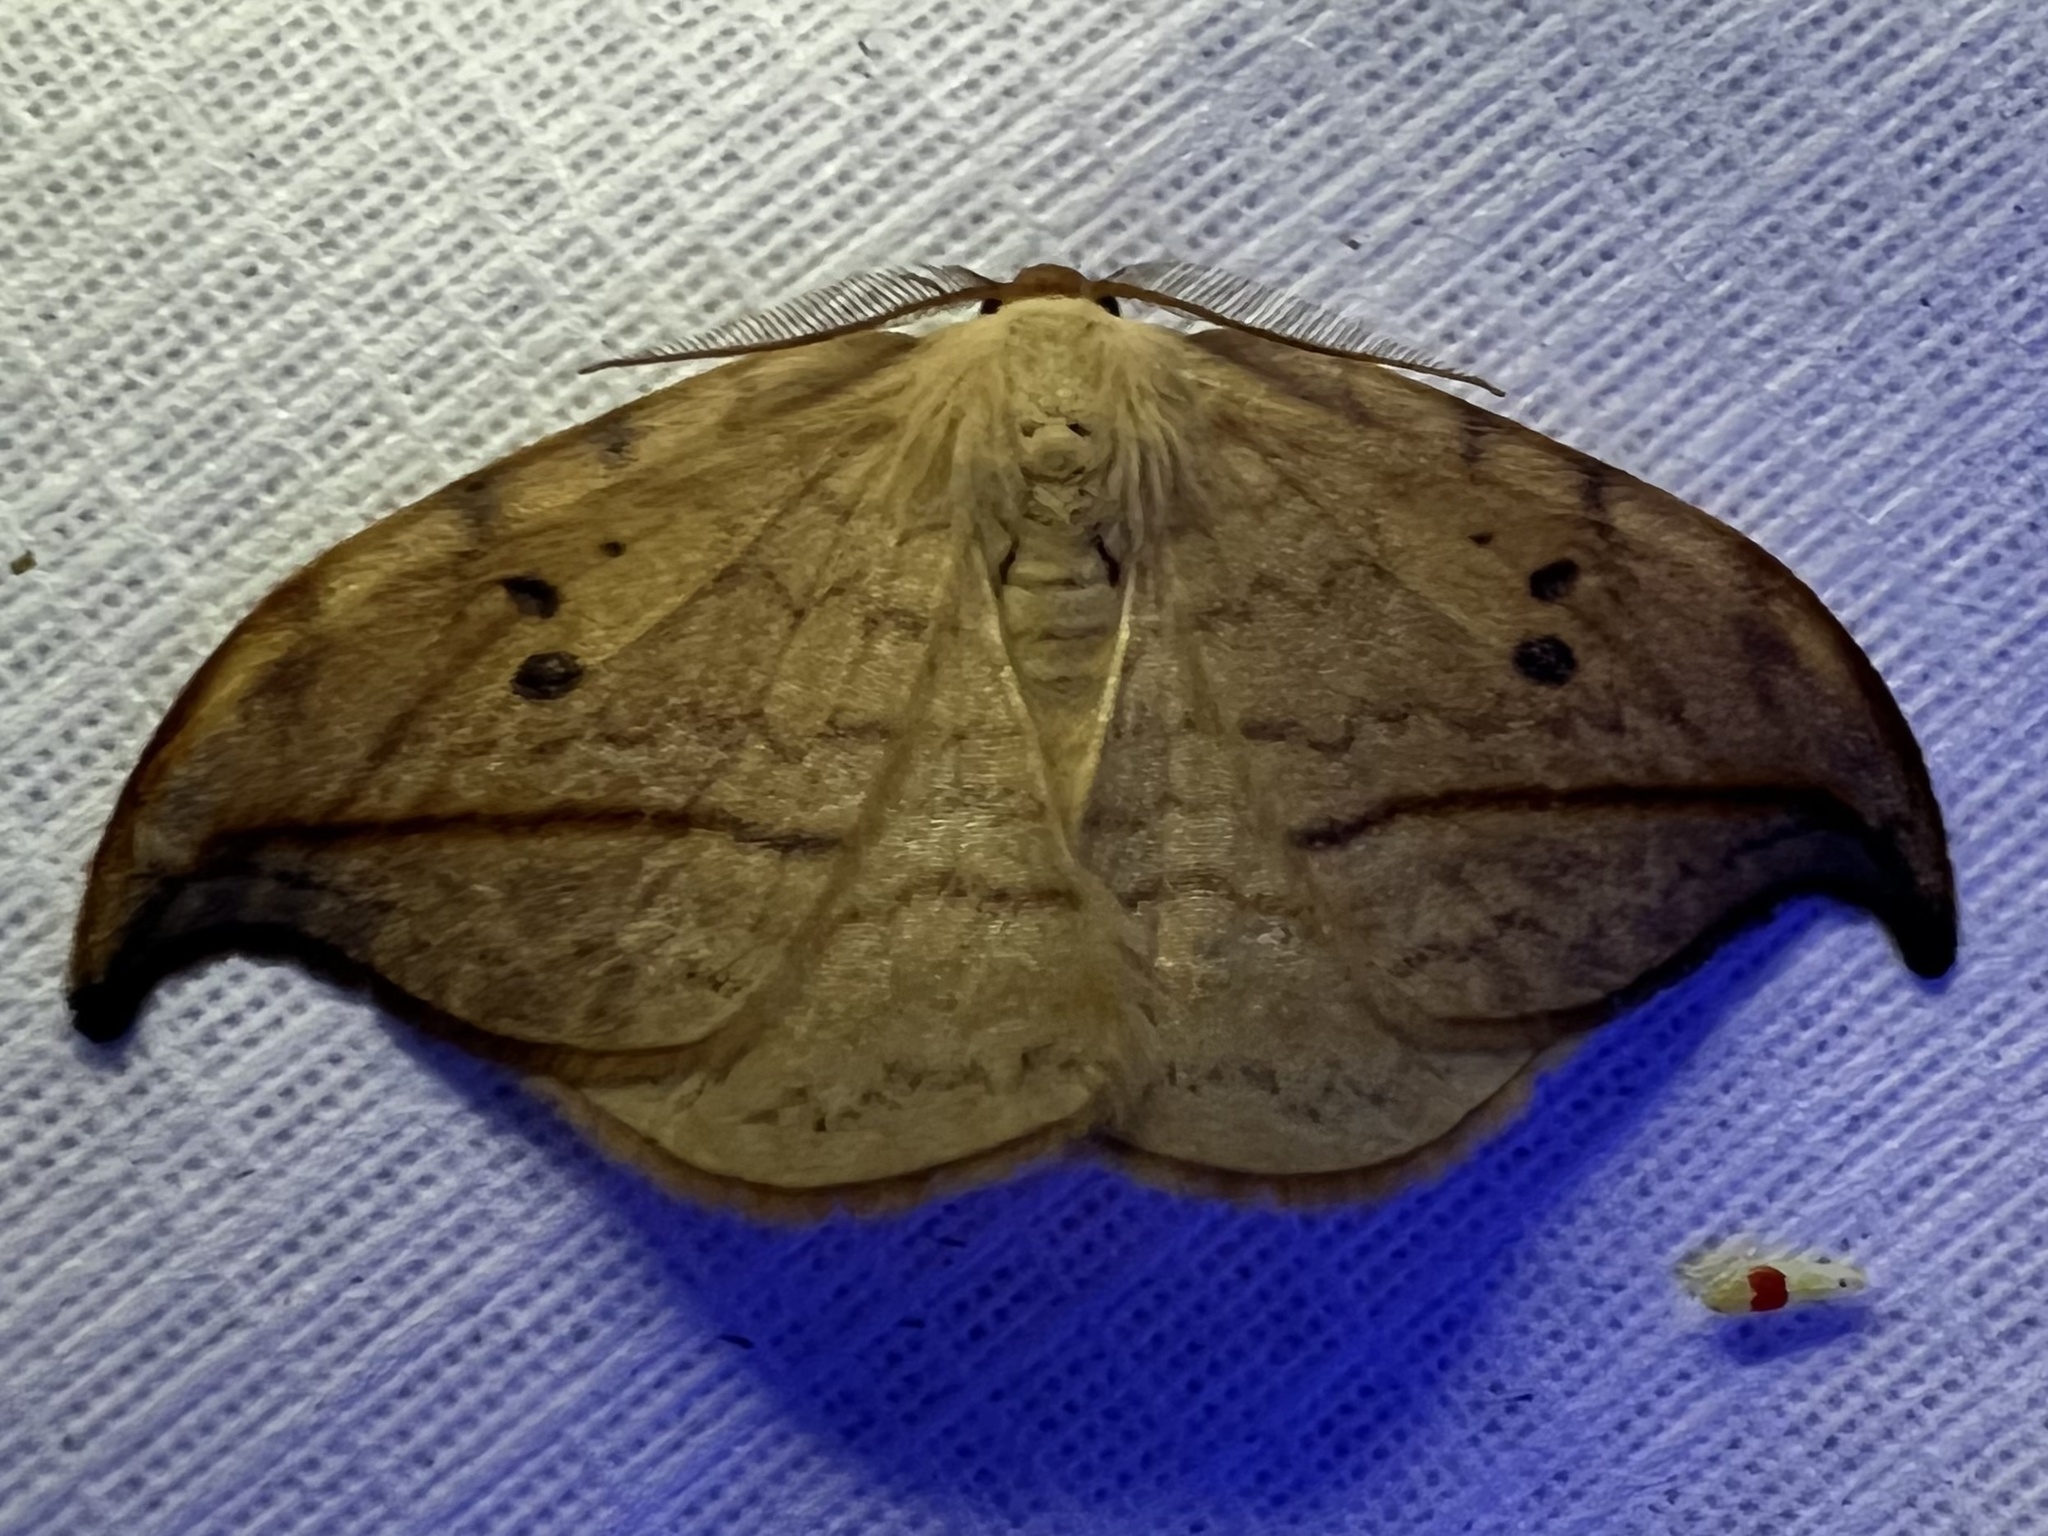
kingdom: Animalia
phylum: Arthropoda
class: Insecta
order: Lepidoptera
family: Drepanidae
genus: Drepana
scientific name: Drepana arcuata
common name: Arched hooktip moth
